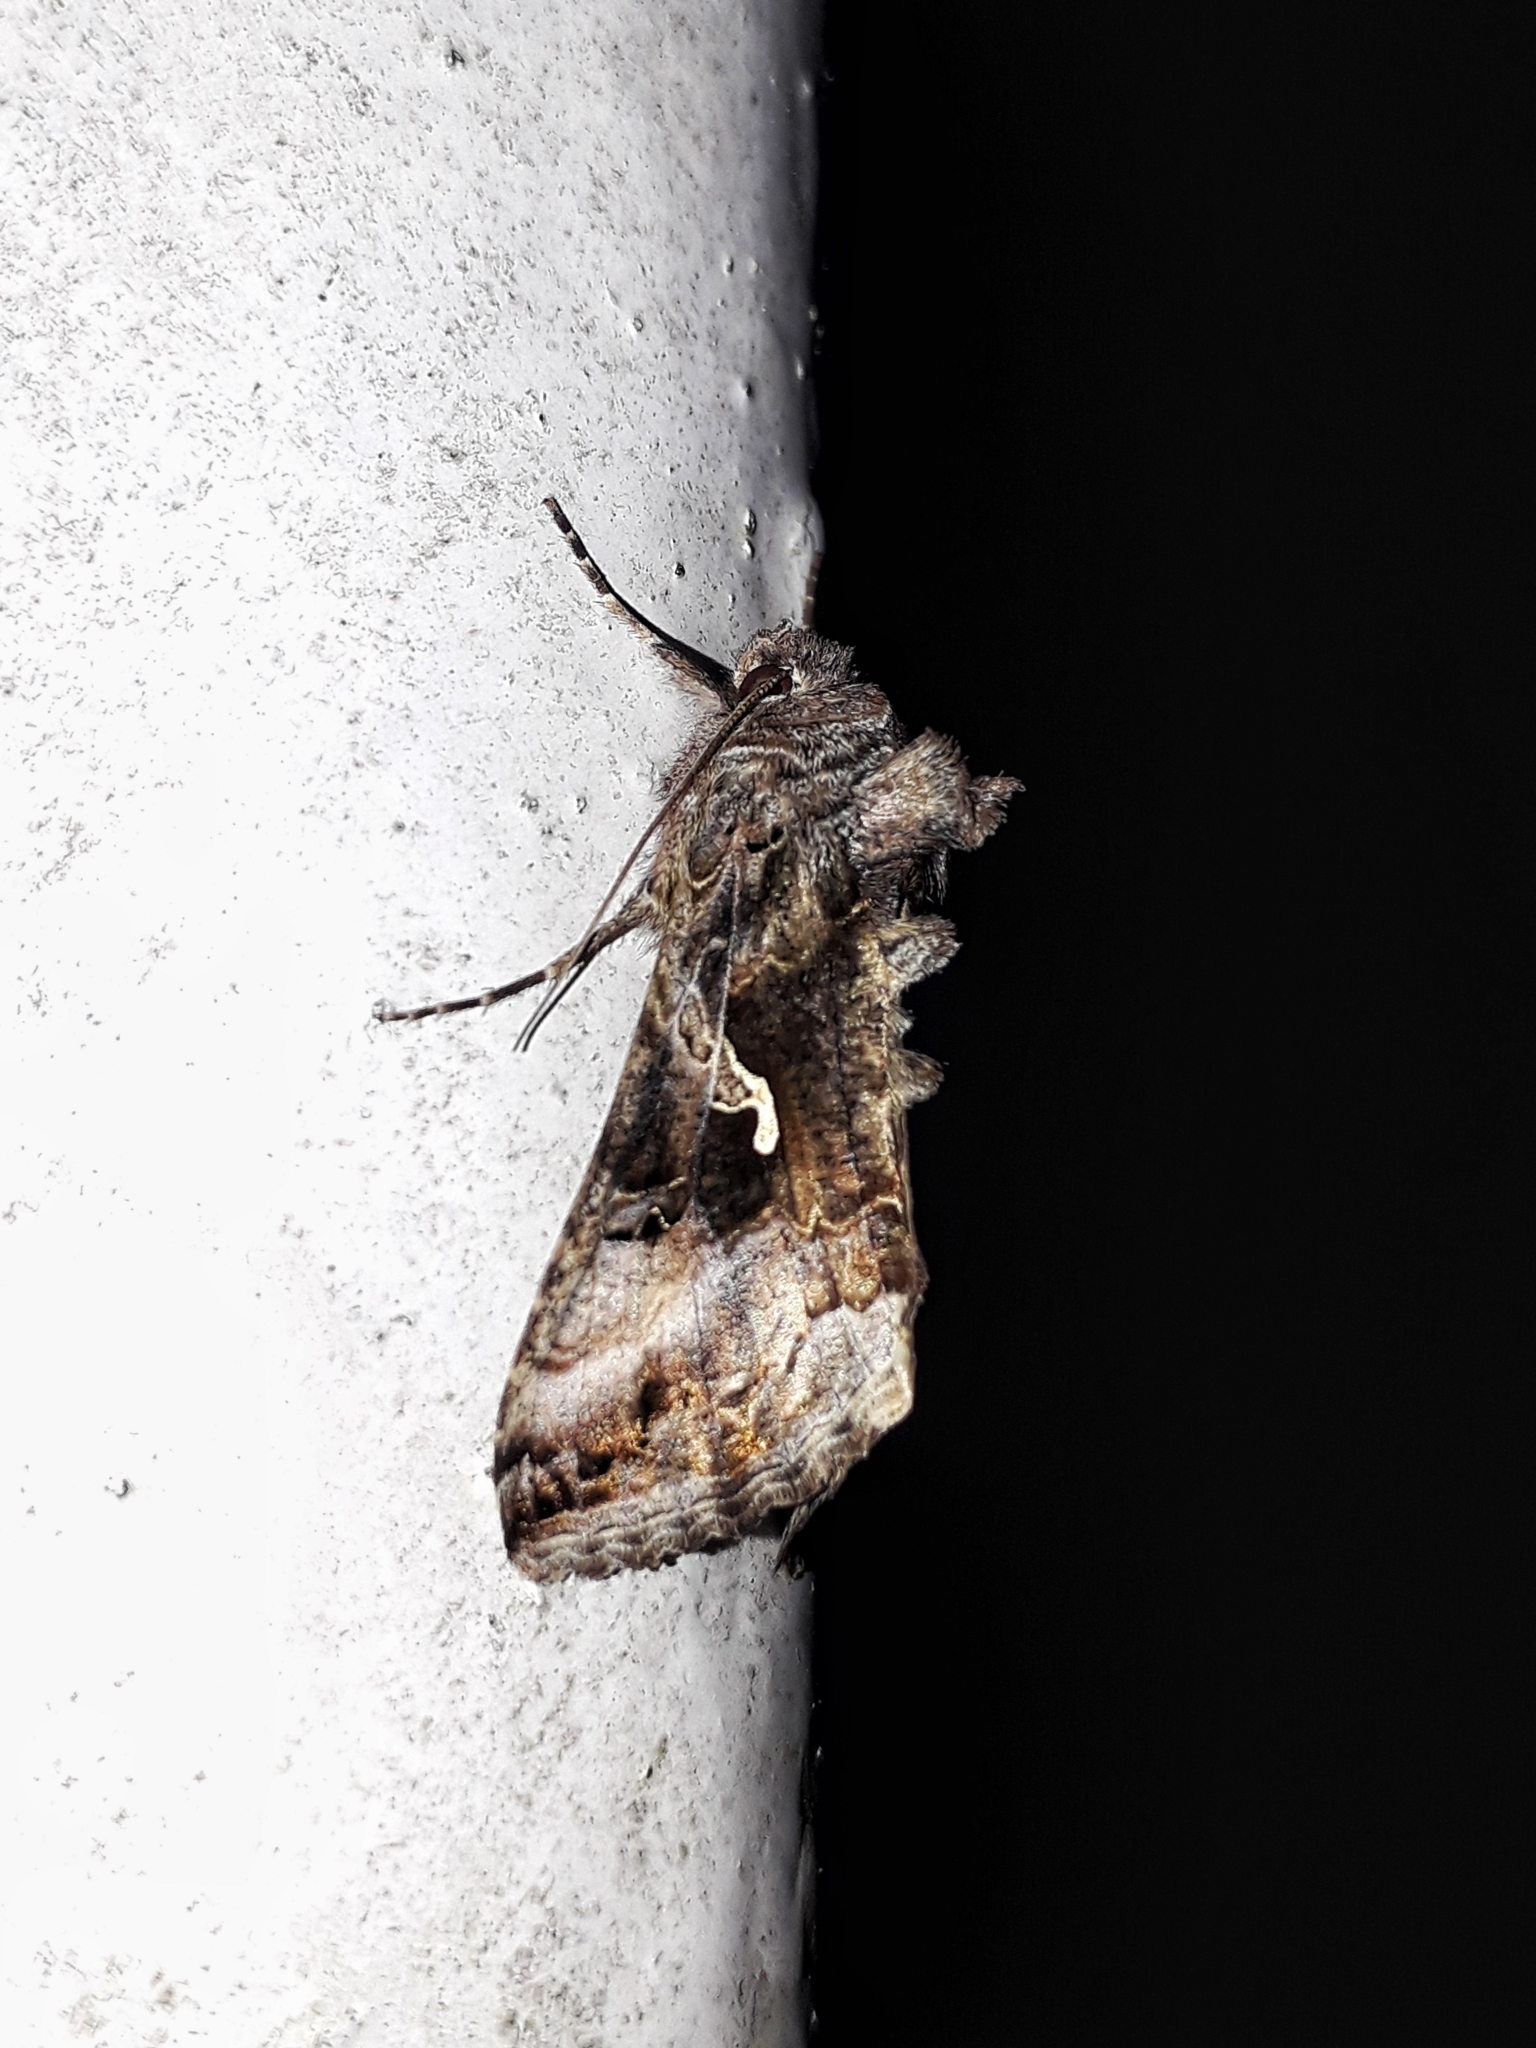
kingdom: Animalia
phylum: Arthropoda
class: Insecta
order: Lepidoptera
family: Noctuidae
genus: Autographa
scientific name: Autographa gamma
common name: Silver y
